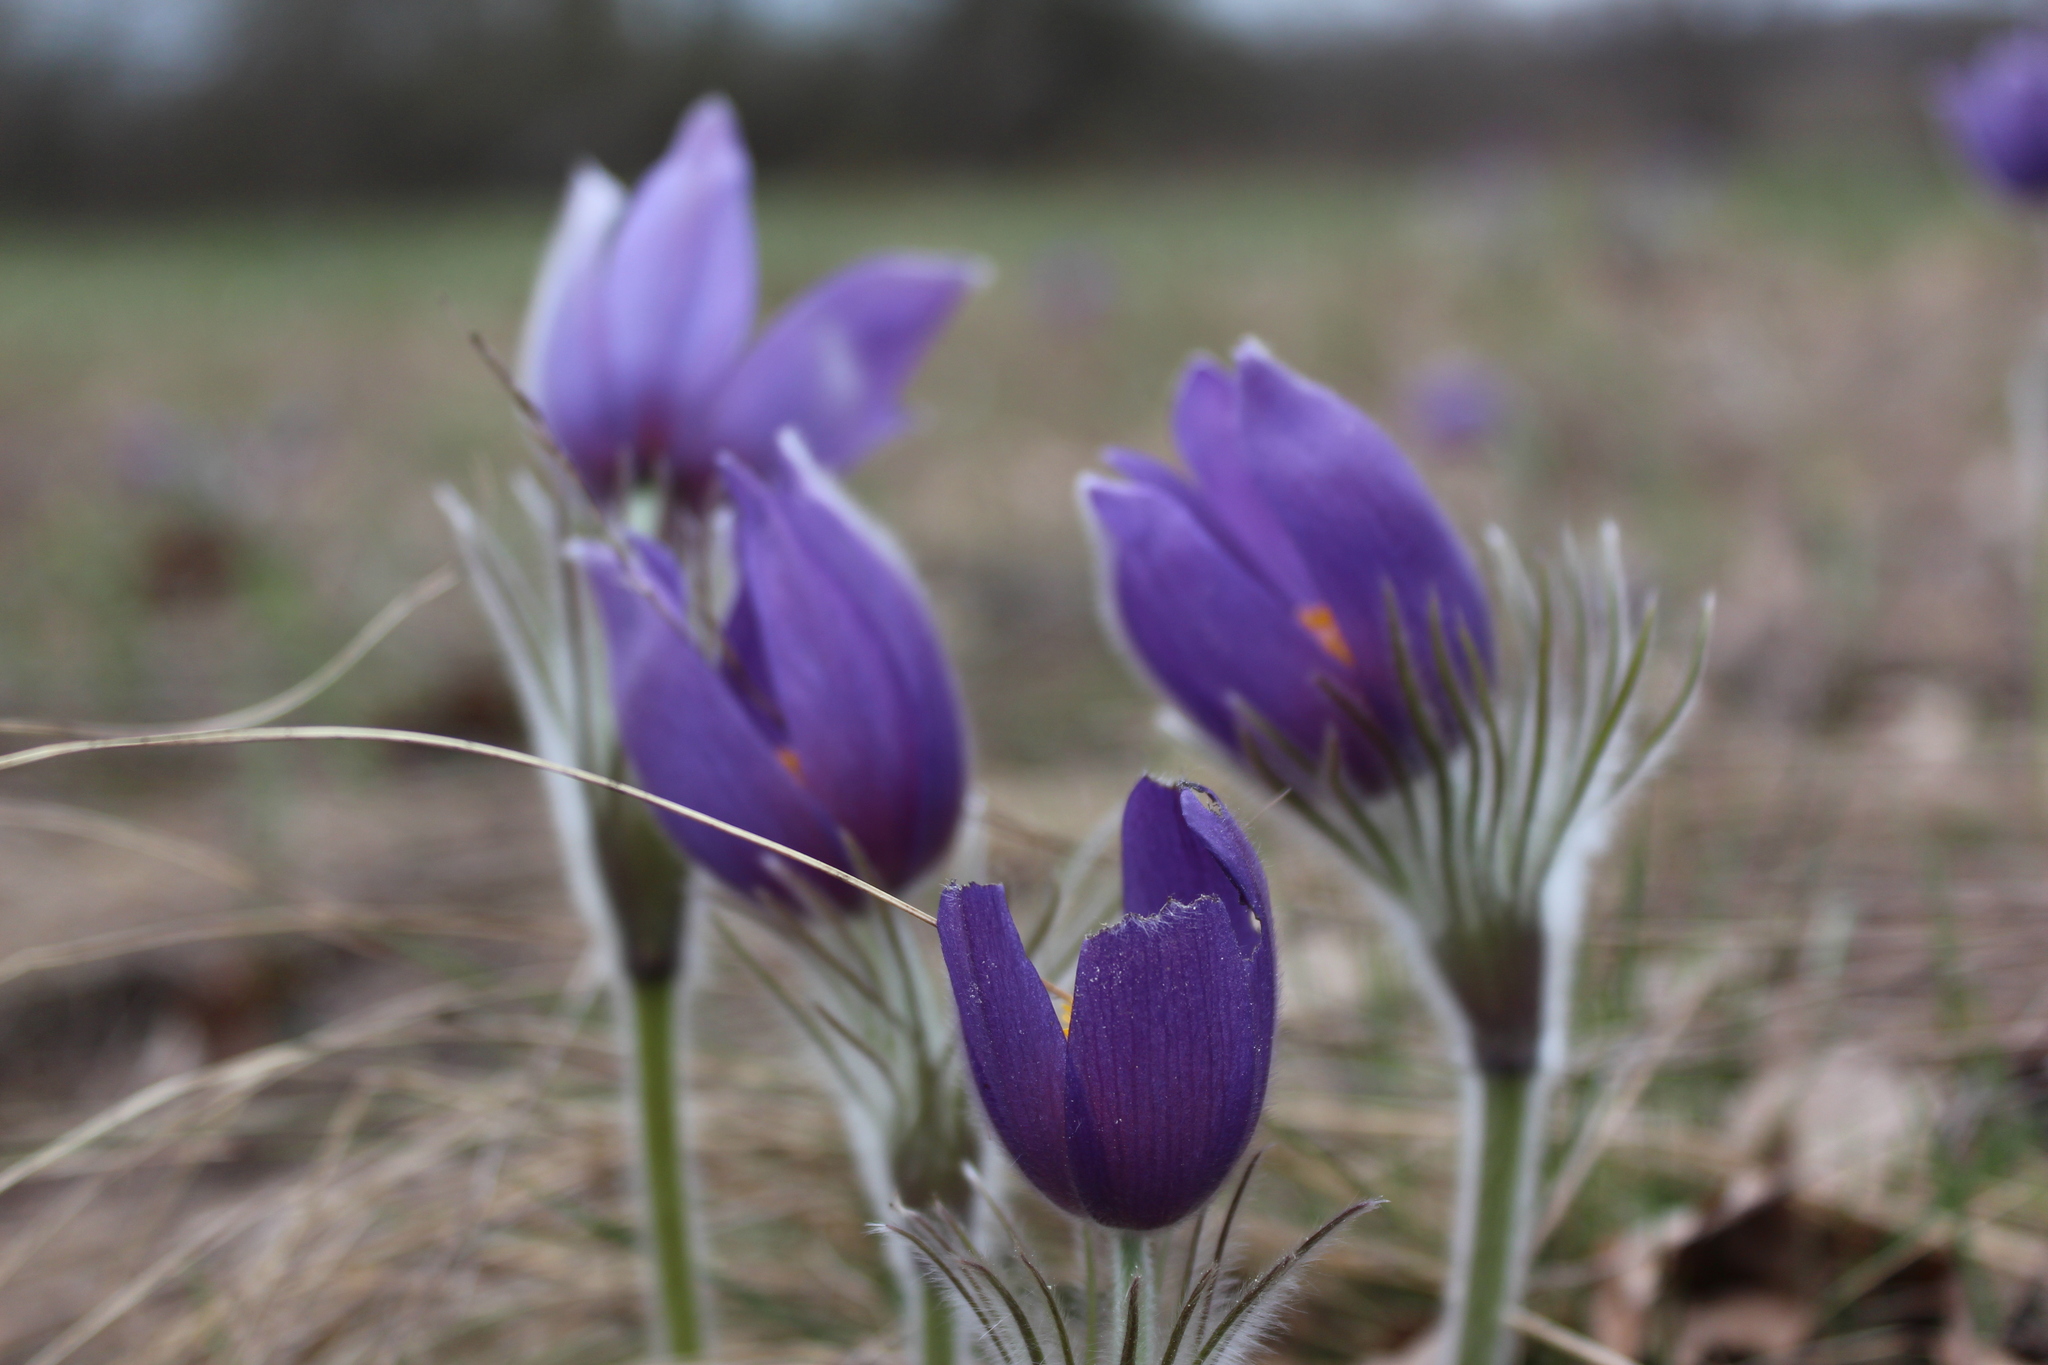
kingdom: Plantae
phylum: Tracheophyta
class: Magnoliopsida
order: Ranunculales
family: Ranunculaceae
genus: Pulsatilla
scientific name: Pulsatilla patens
